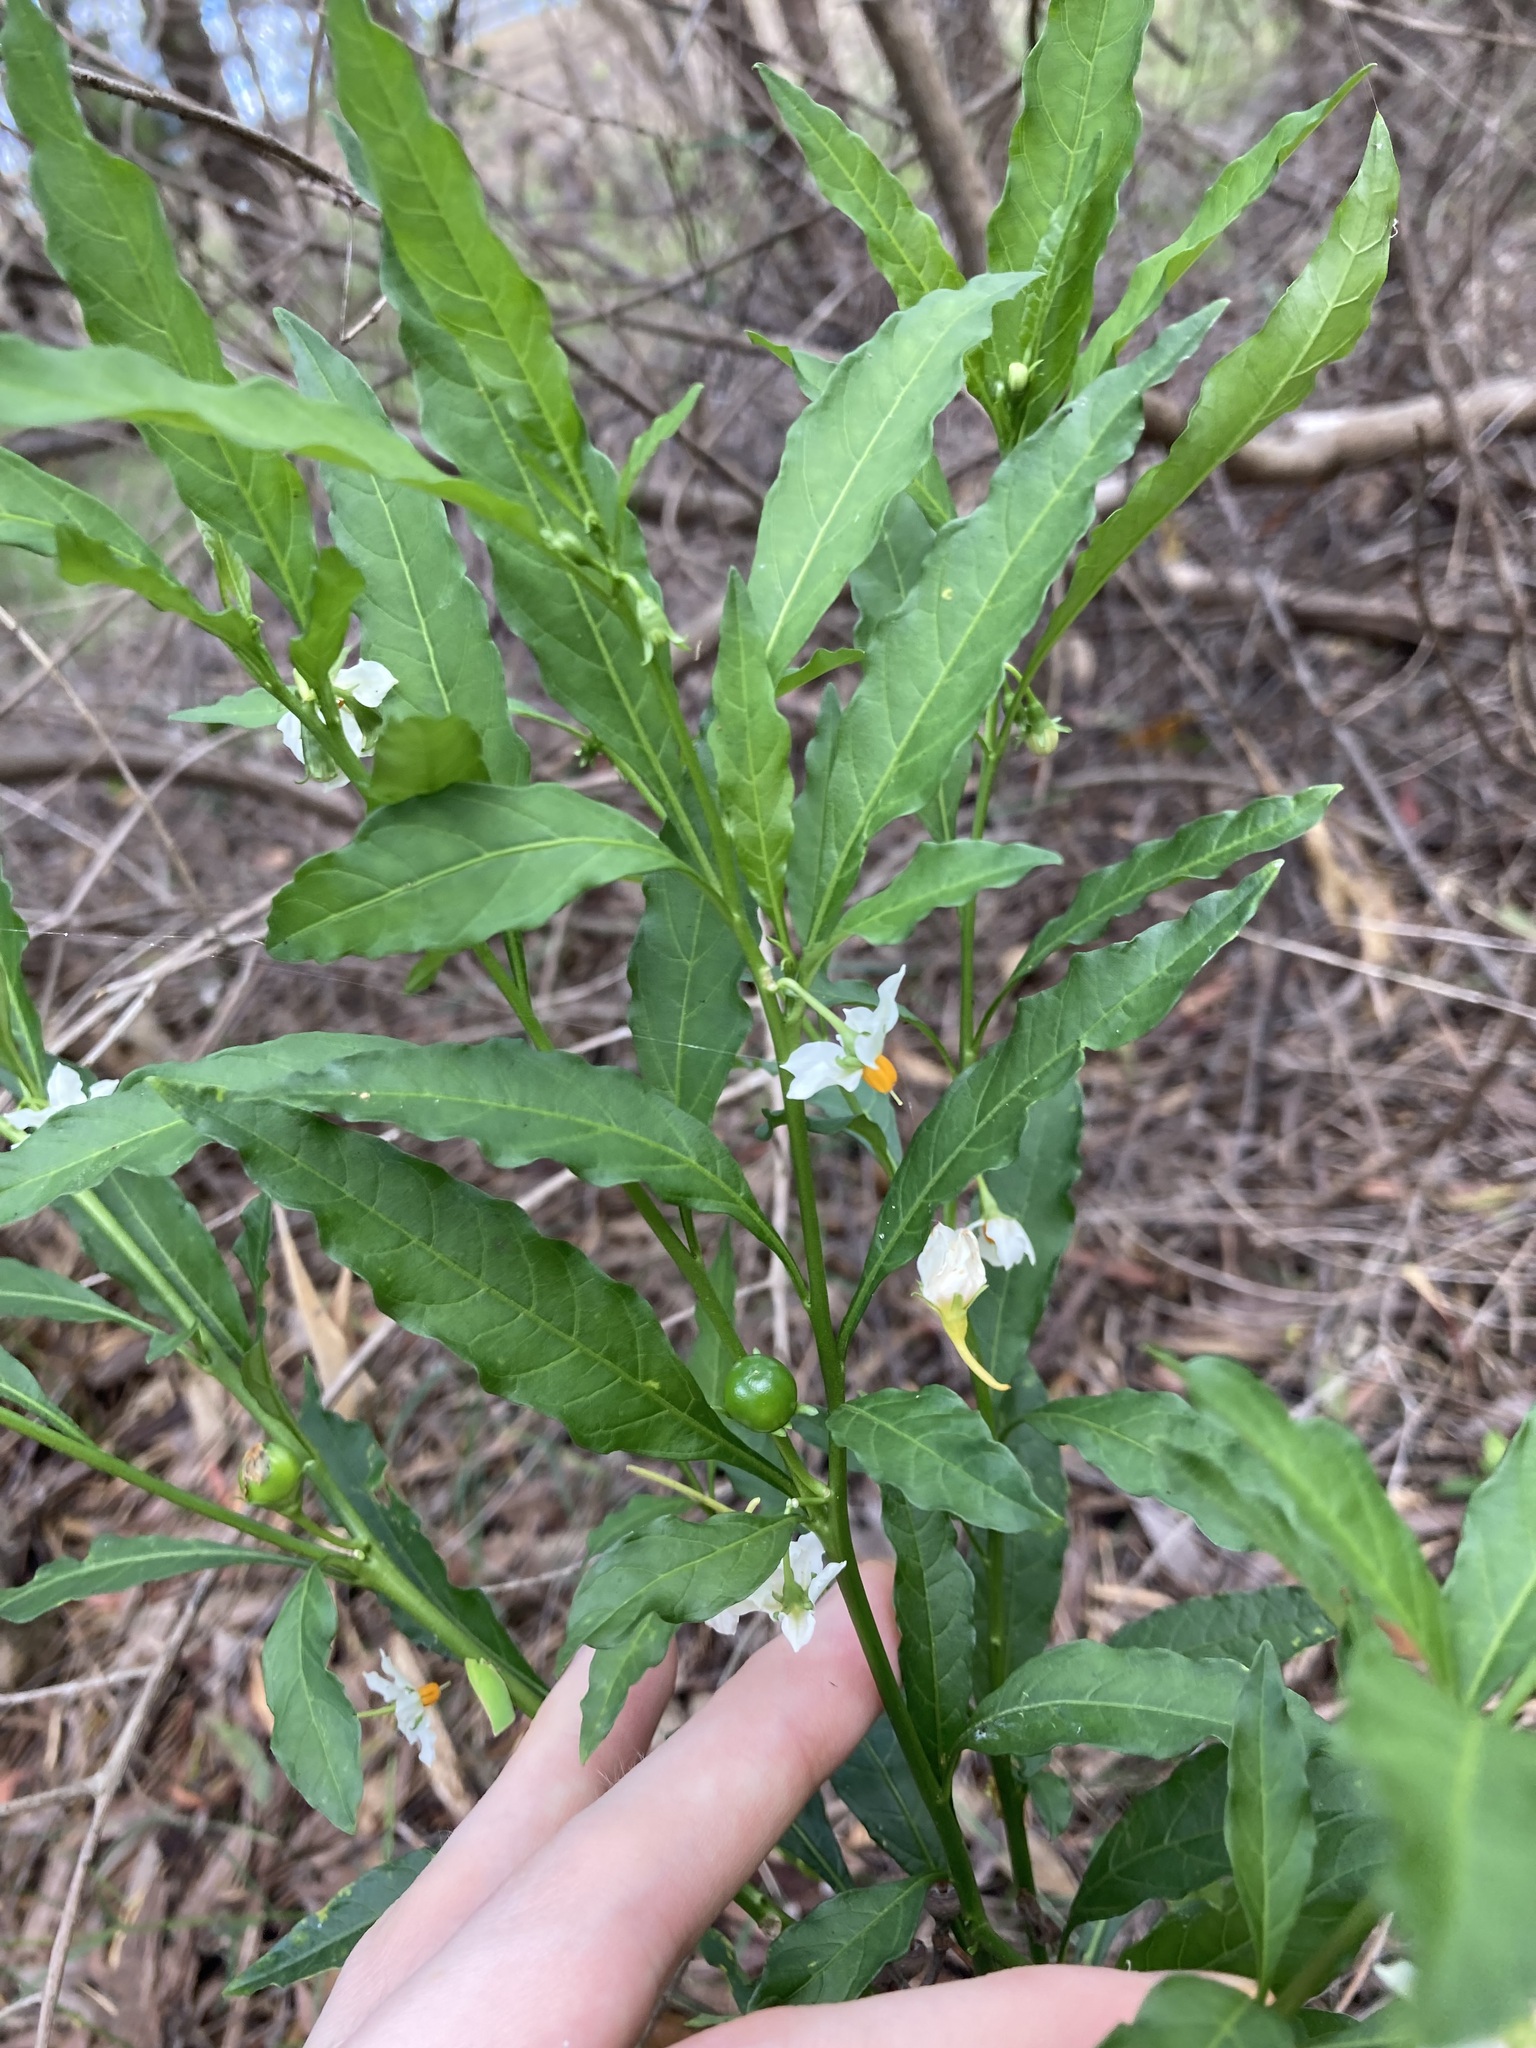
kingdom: Plantae
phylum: Tracheophyta
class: Magnoliopsida
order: Solanales
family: Solanaceae
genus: Solanum
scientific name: Solanum pseudocapsicum
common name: Jerusalem cherry
